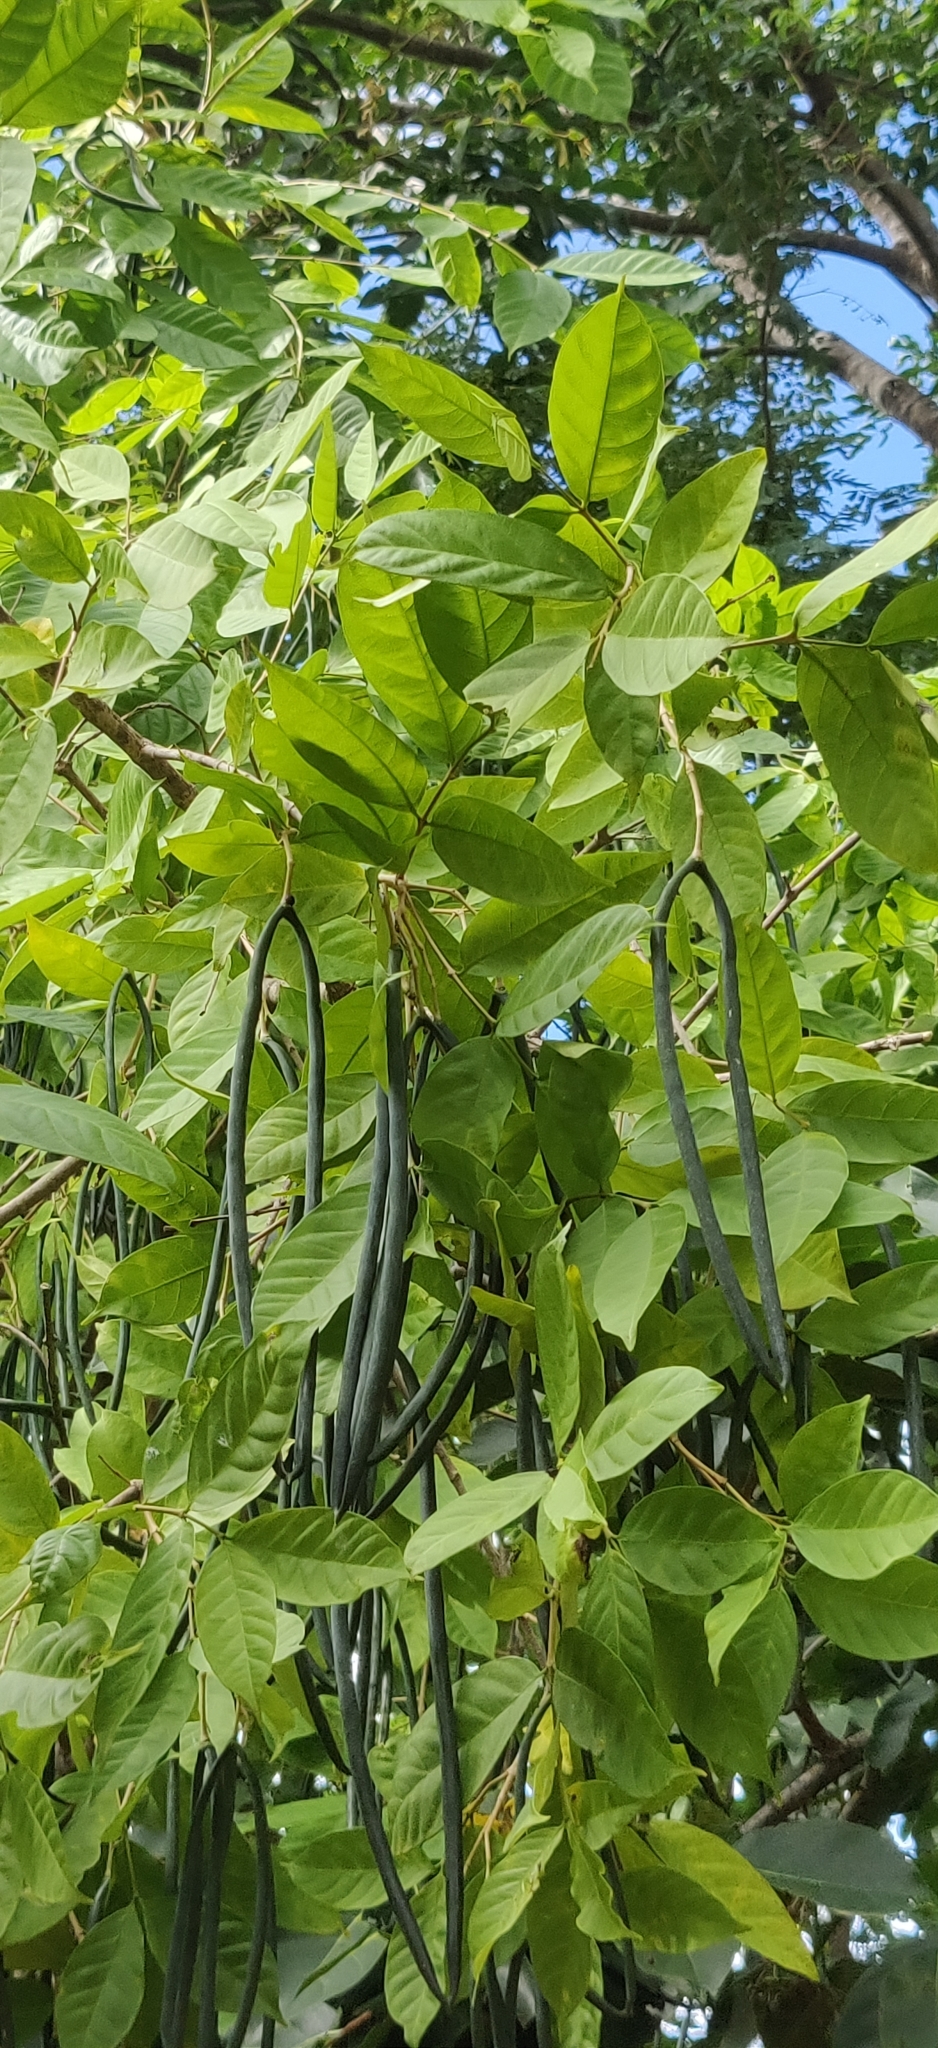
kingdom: Plantae
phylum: Tracheophyta
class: Magnoliopsida
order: Gentianales
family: Apocynaceae
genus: Wrightia
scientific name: Wrightia tinctoria
